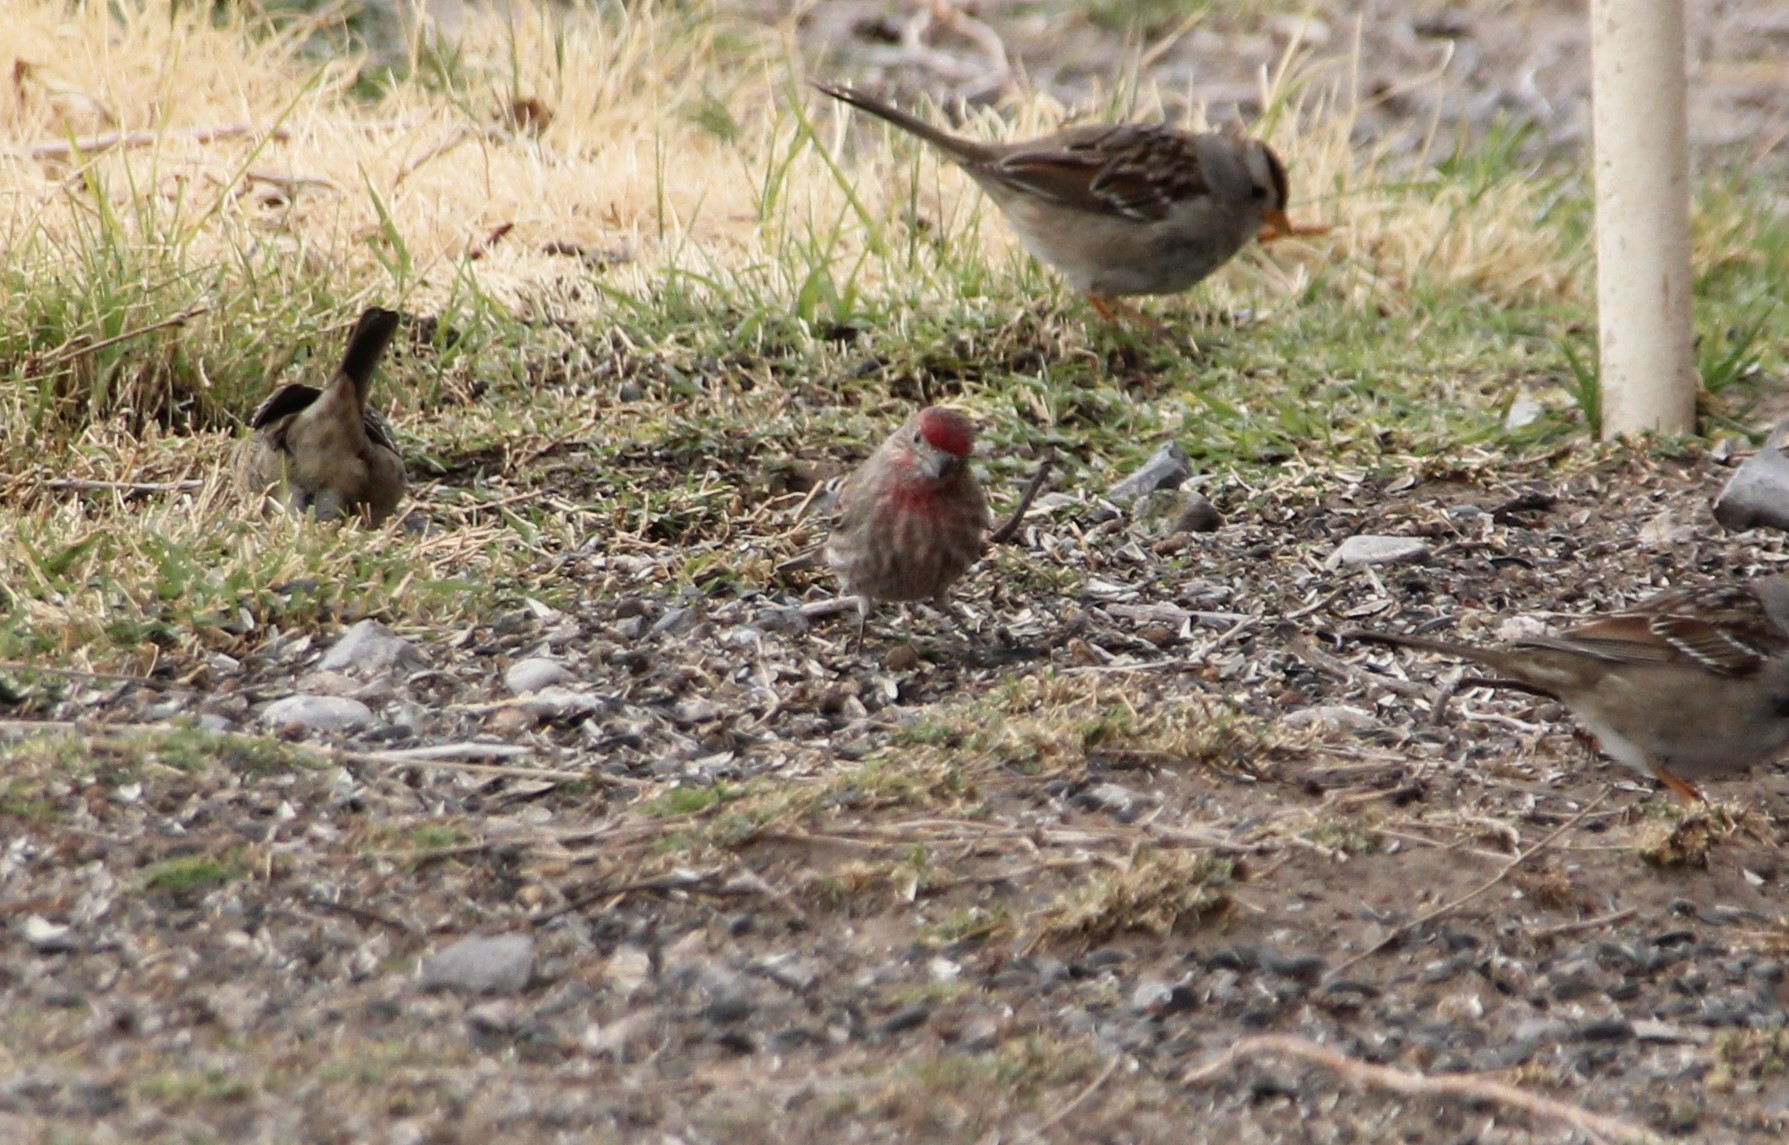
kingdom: Animalia
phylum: Chordata
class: Aves
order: Passeriformes
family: Fringillidae
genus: Haemorhous
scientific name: Haemorhous mexicanus
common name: House finch
